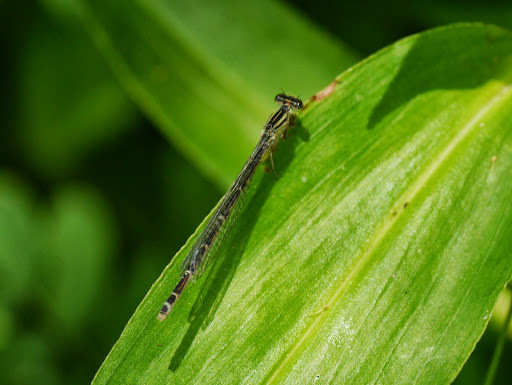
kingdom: Animalia
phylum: Arthropoda
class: Insecta
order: Odonata
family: Coenagrionidae
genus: Enallagma
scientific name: Enallagma durum
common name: Big bluet
